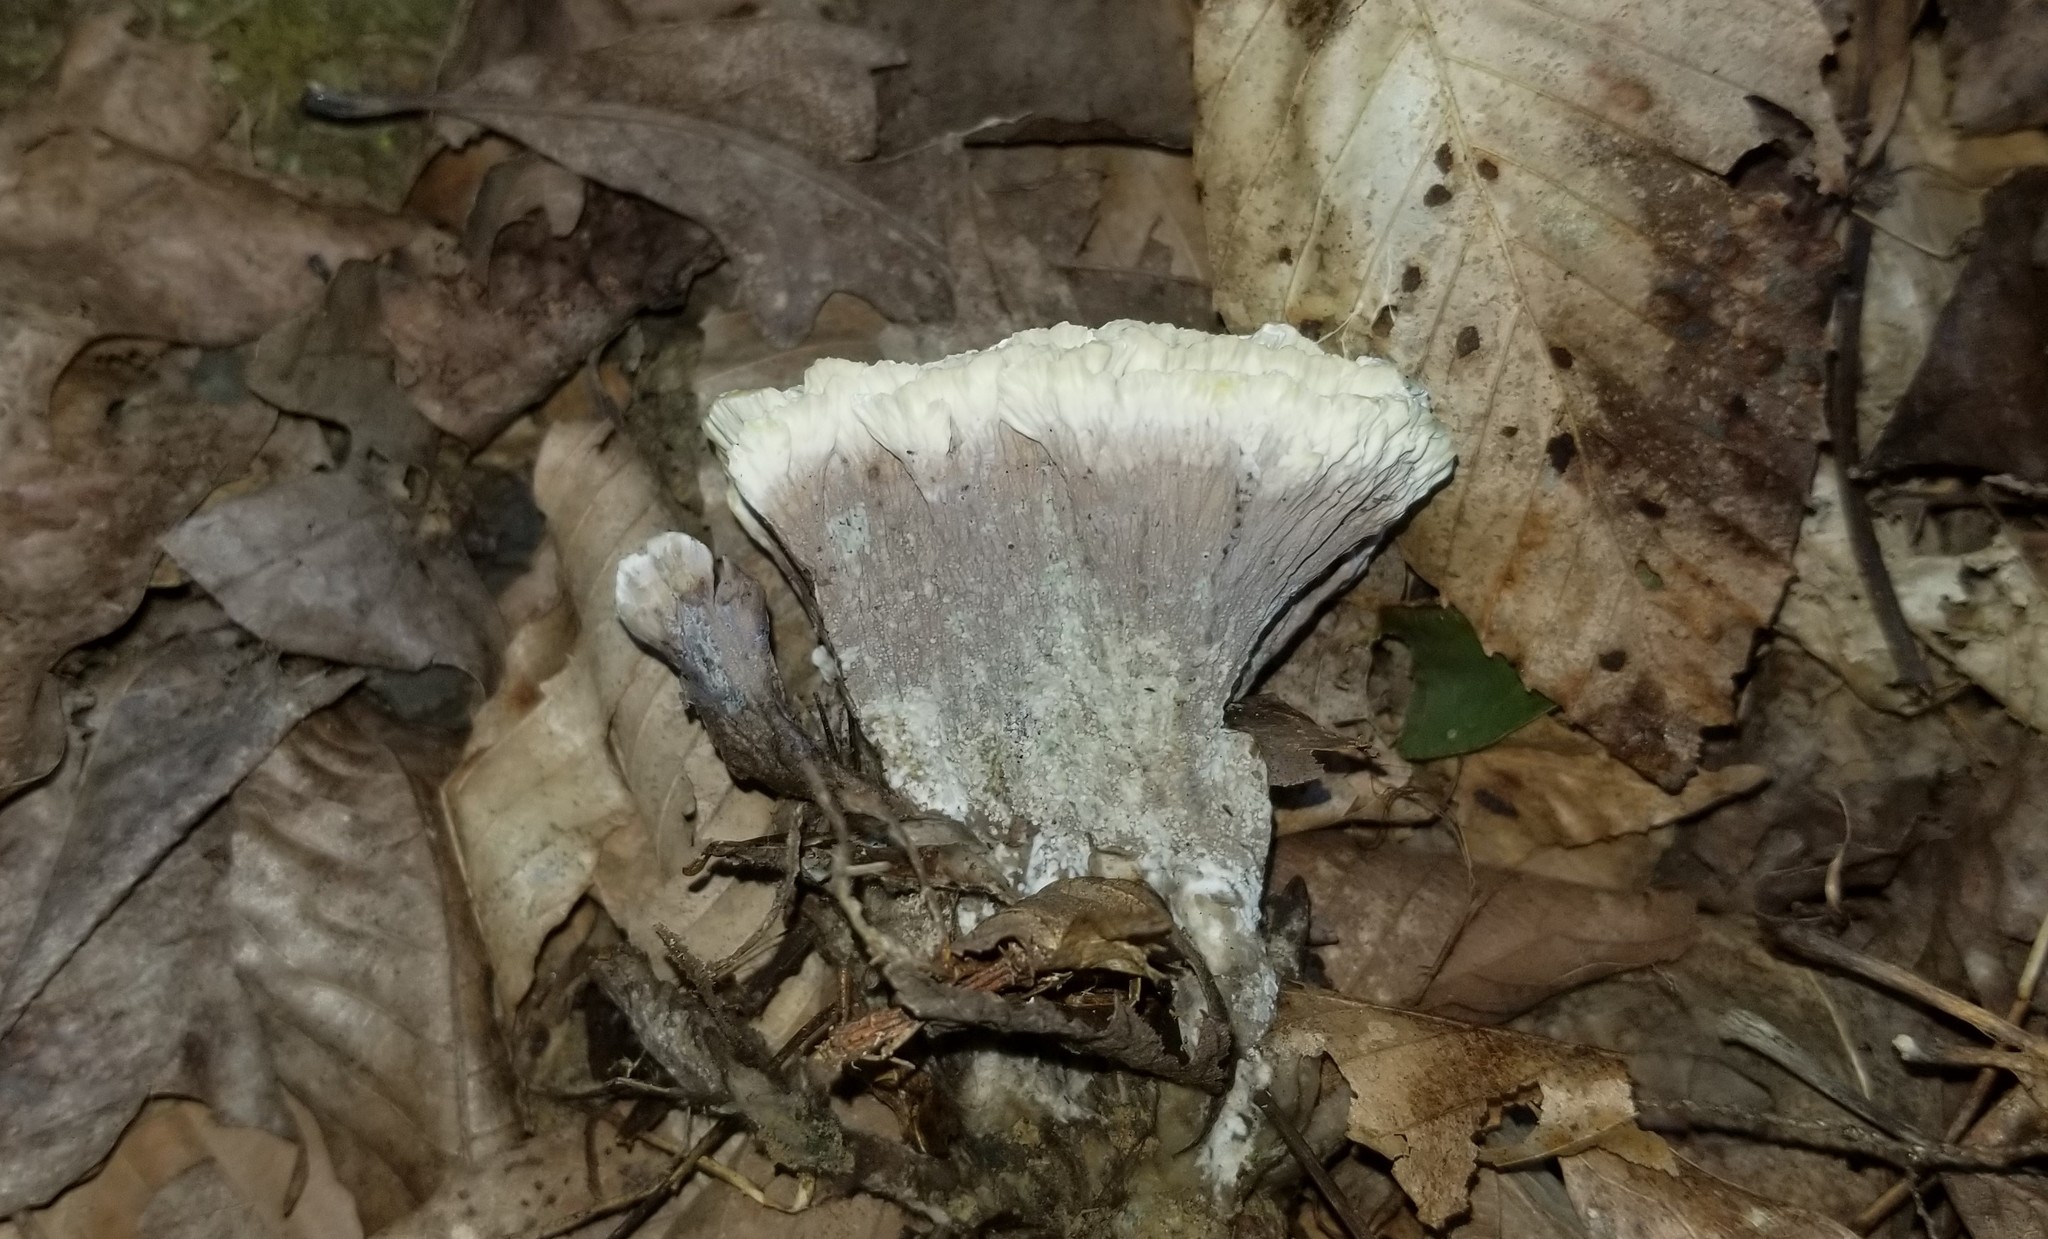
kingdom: Fungi
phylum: Basidiomycota
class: Agaricomycetes
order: Thelephorales
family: Thelephoraceae
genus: Thelephora
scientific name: Thelephora vialis
